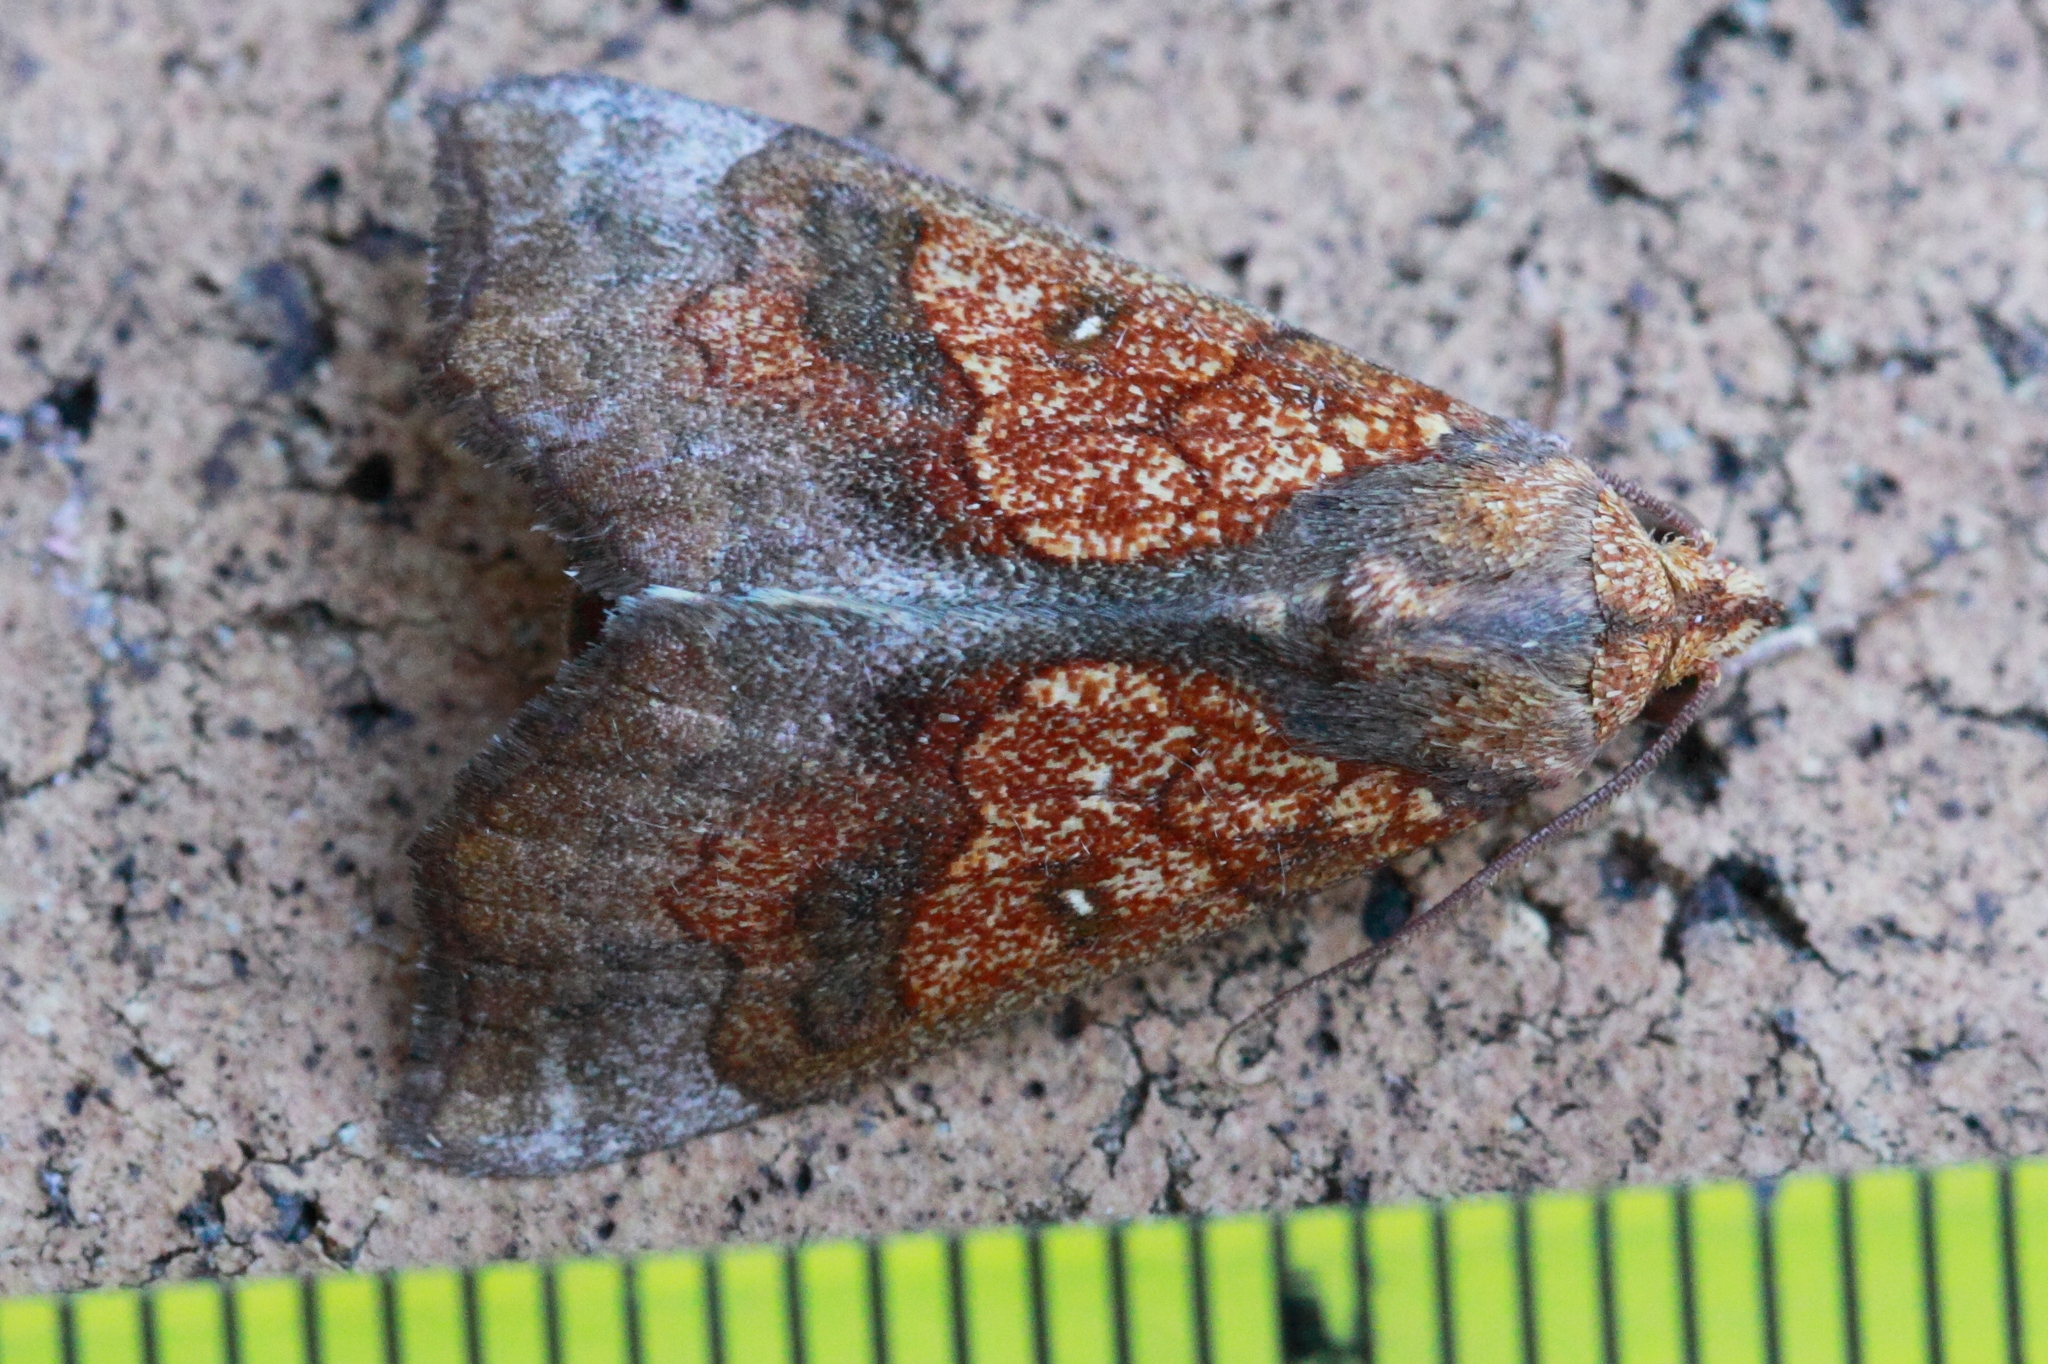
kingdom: Animalia
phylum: Arthropoda
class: Insecta
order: Lepidoptera
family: Erebidae
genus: Anomis
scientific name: Anomis flava
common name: Moth
